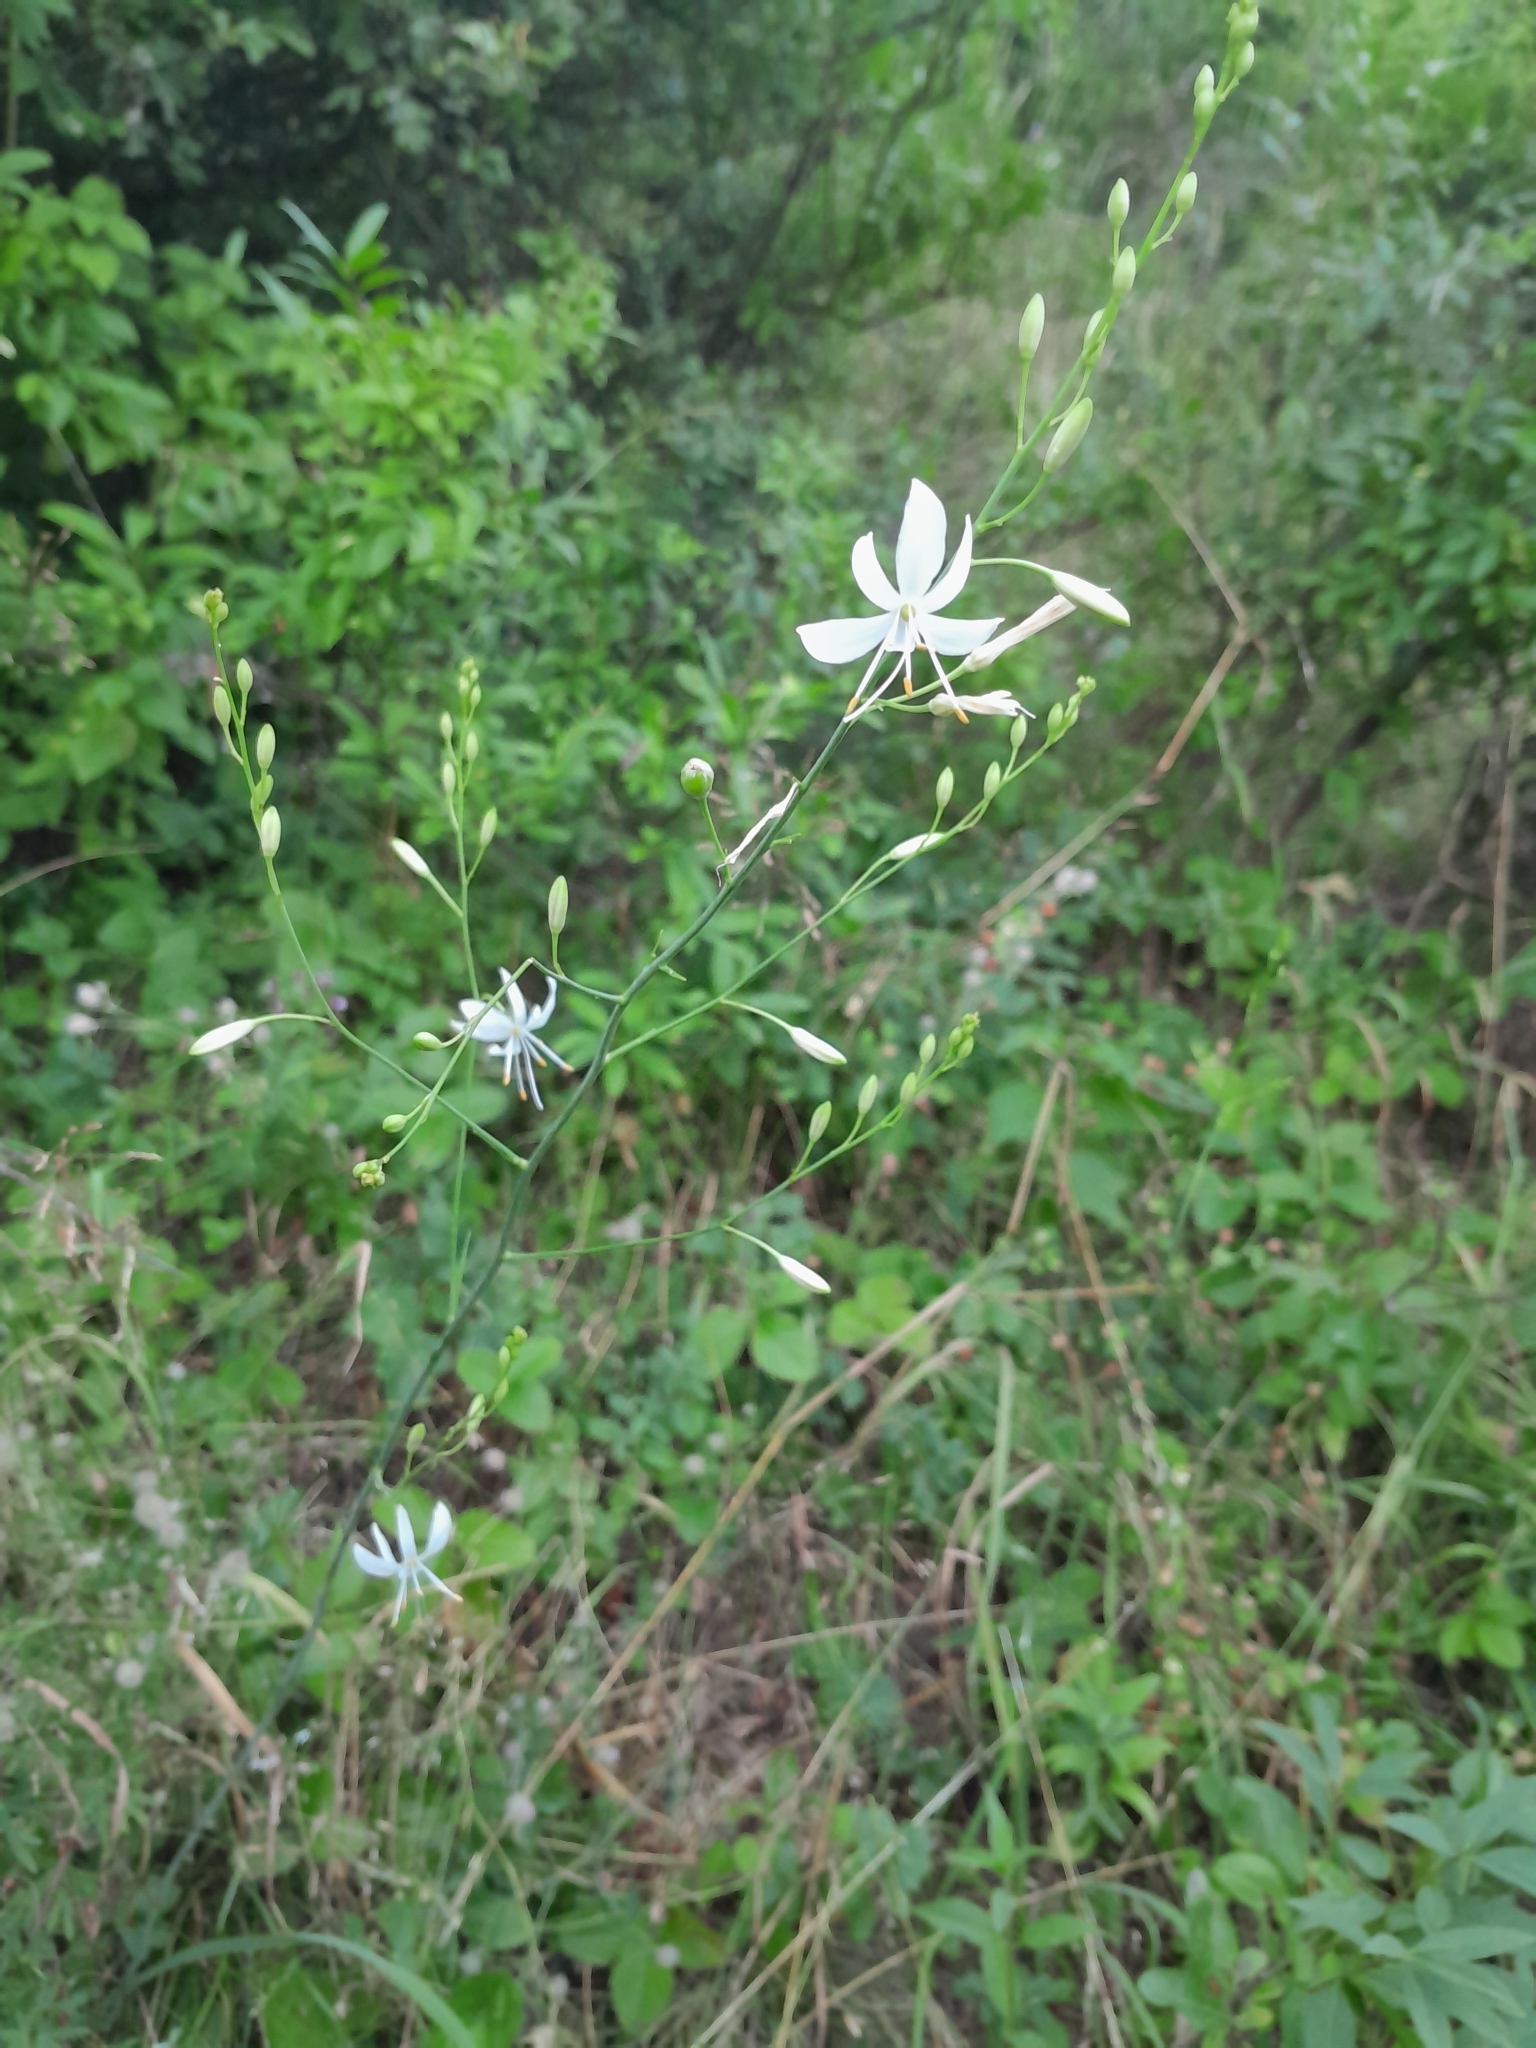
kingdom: Plantae
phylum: Tracheophyta
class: Liliopsida
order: Asparagales
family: Asparagaceae
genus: Anthericum
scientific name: Anthericum ramosum
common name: Branched st. bernard's-lily
